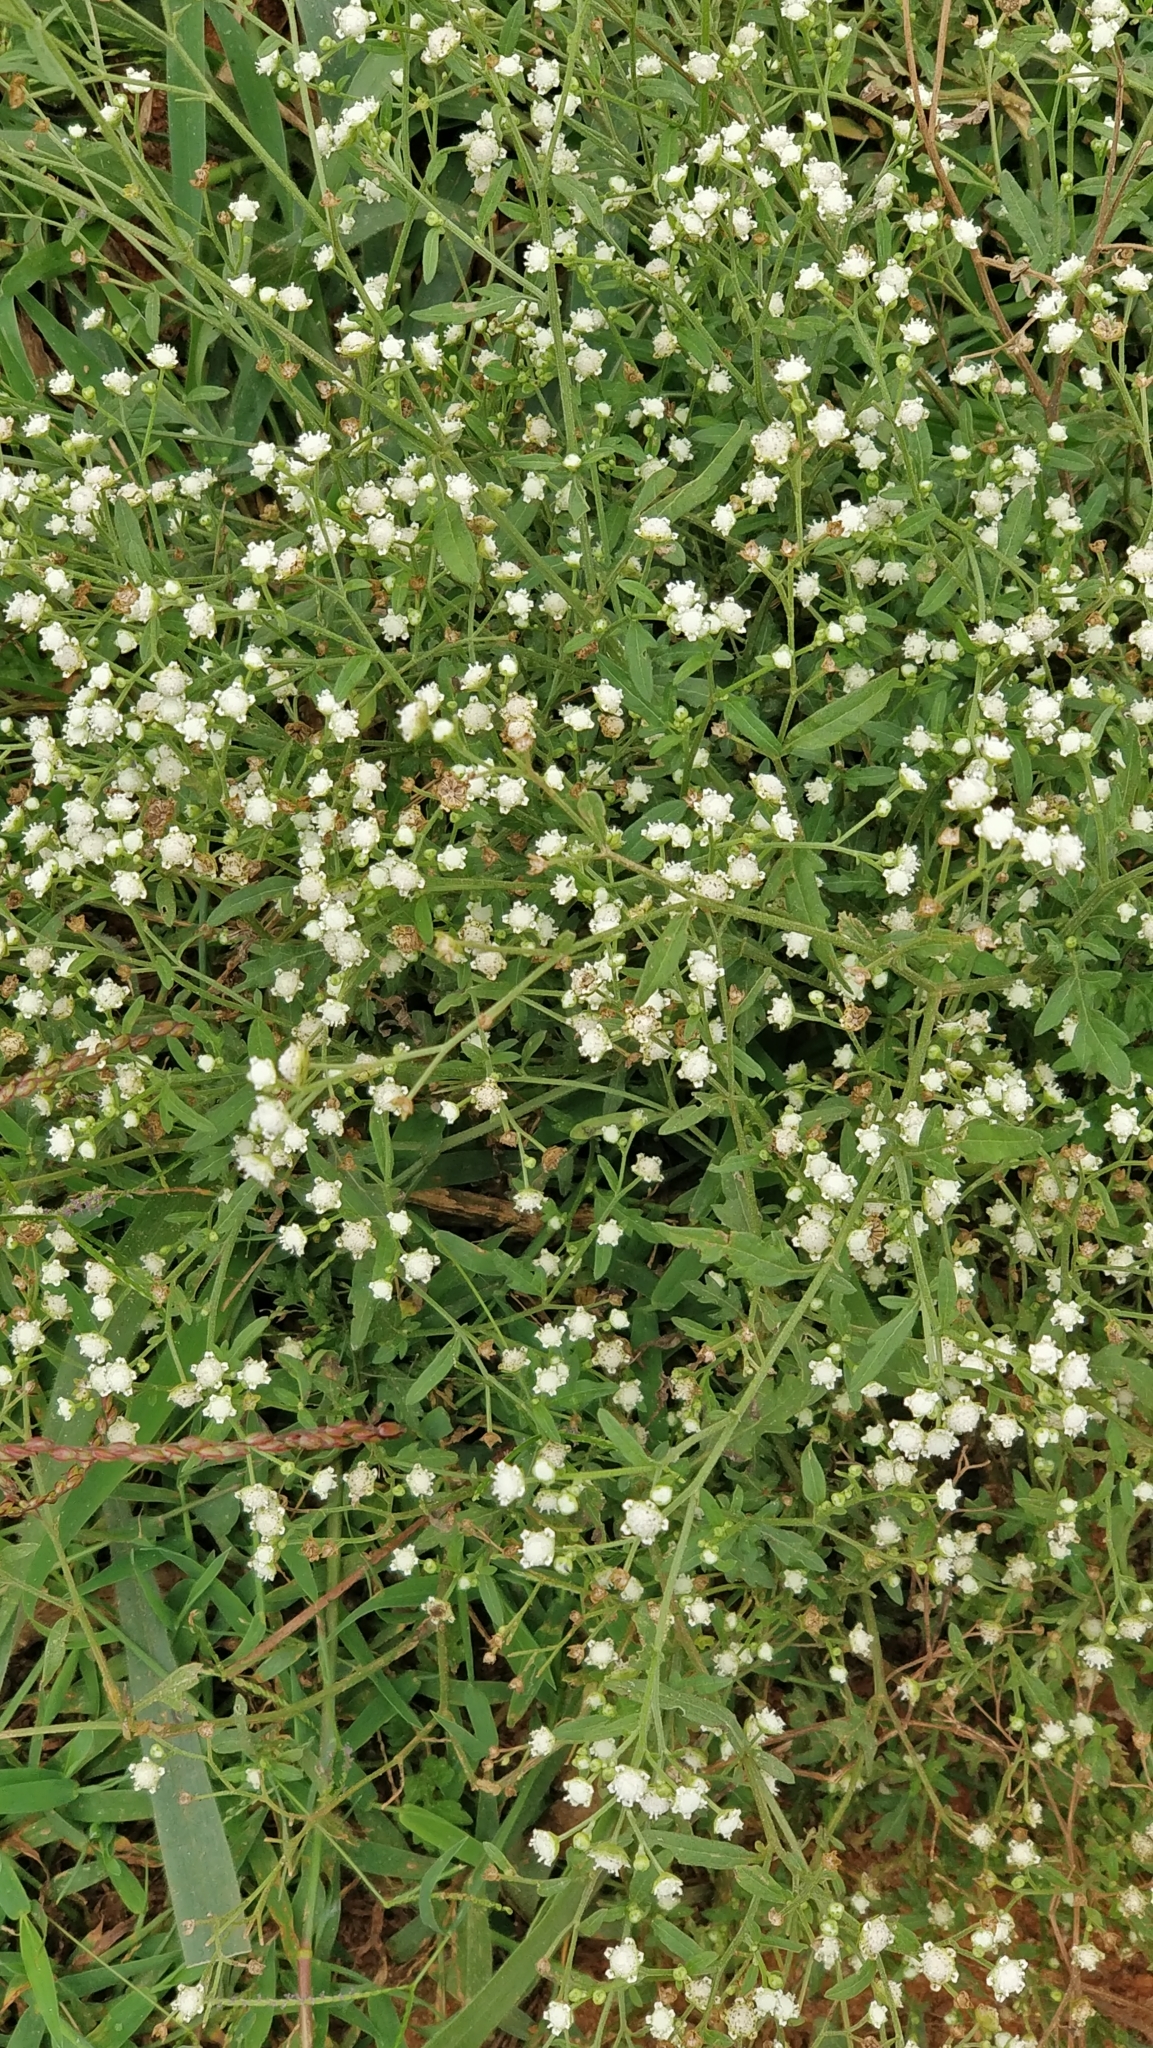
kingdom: Plantae
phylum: Tracheophyta
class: Magnoliopsida
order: Asterales
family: Asteraceae
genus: Parthenium
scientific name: Parthenium hysterophorus
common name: Santa maria feverfew
